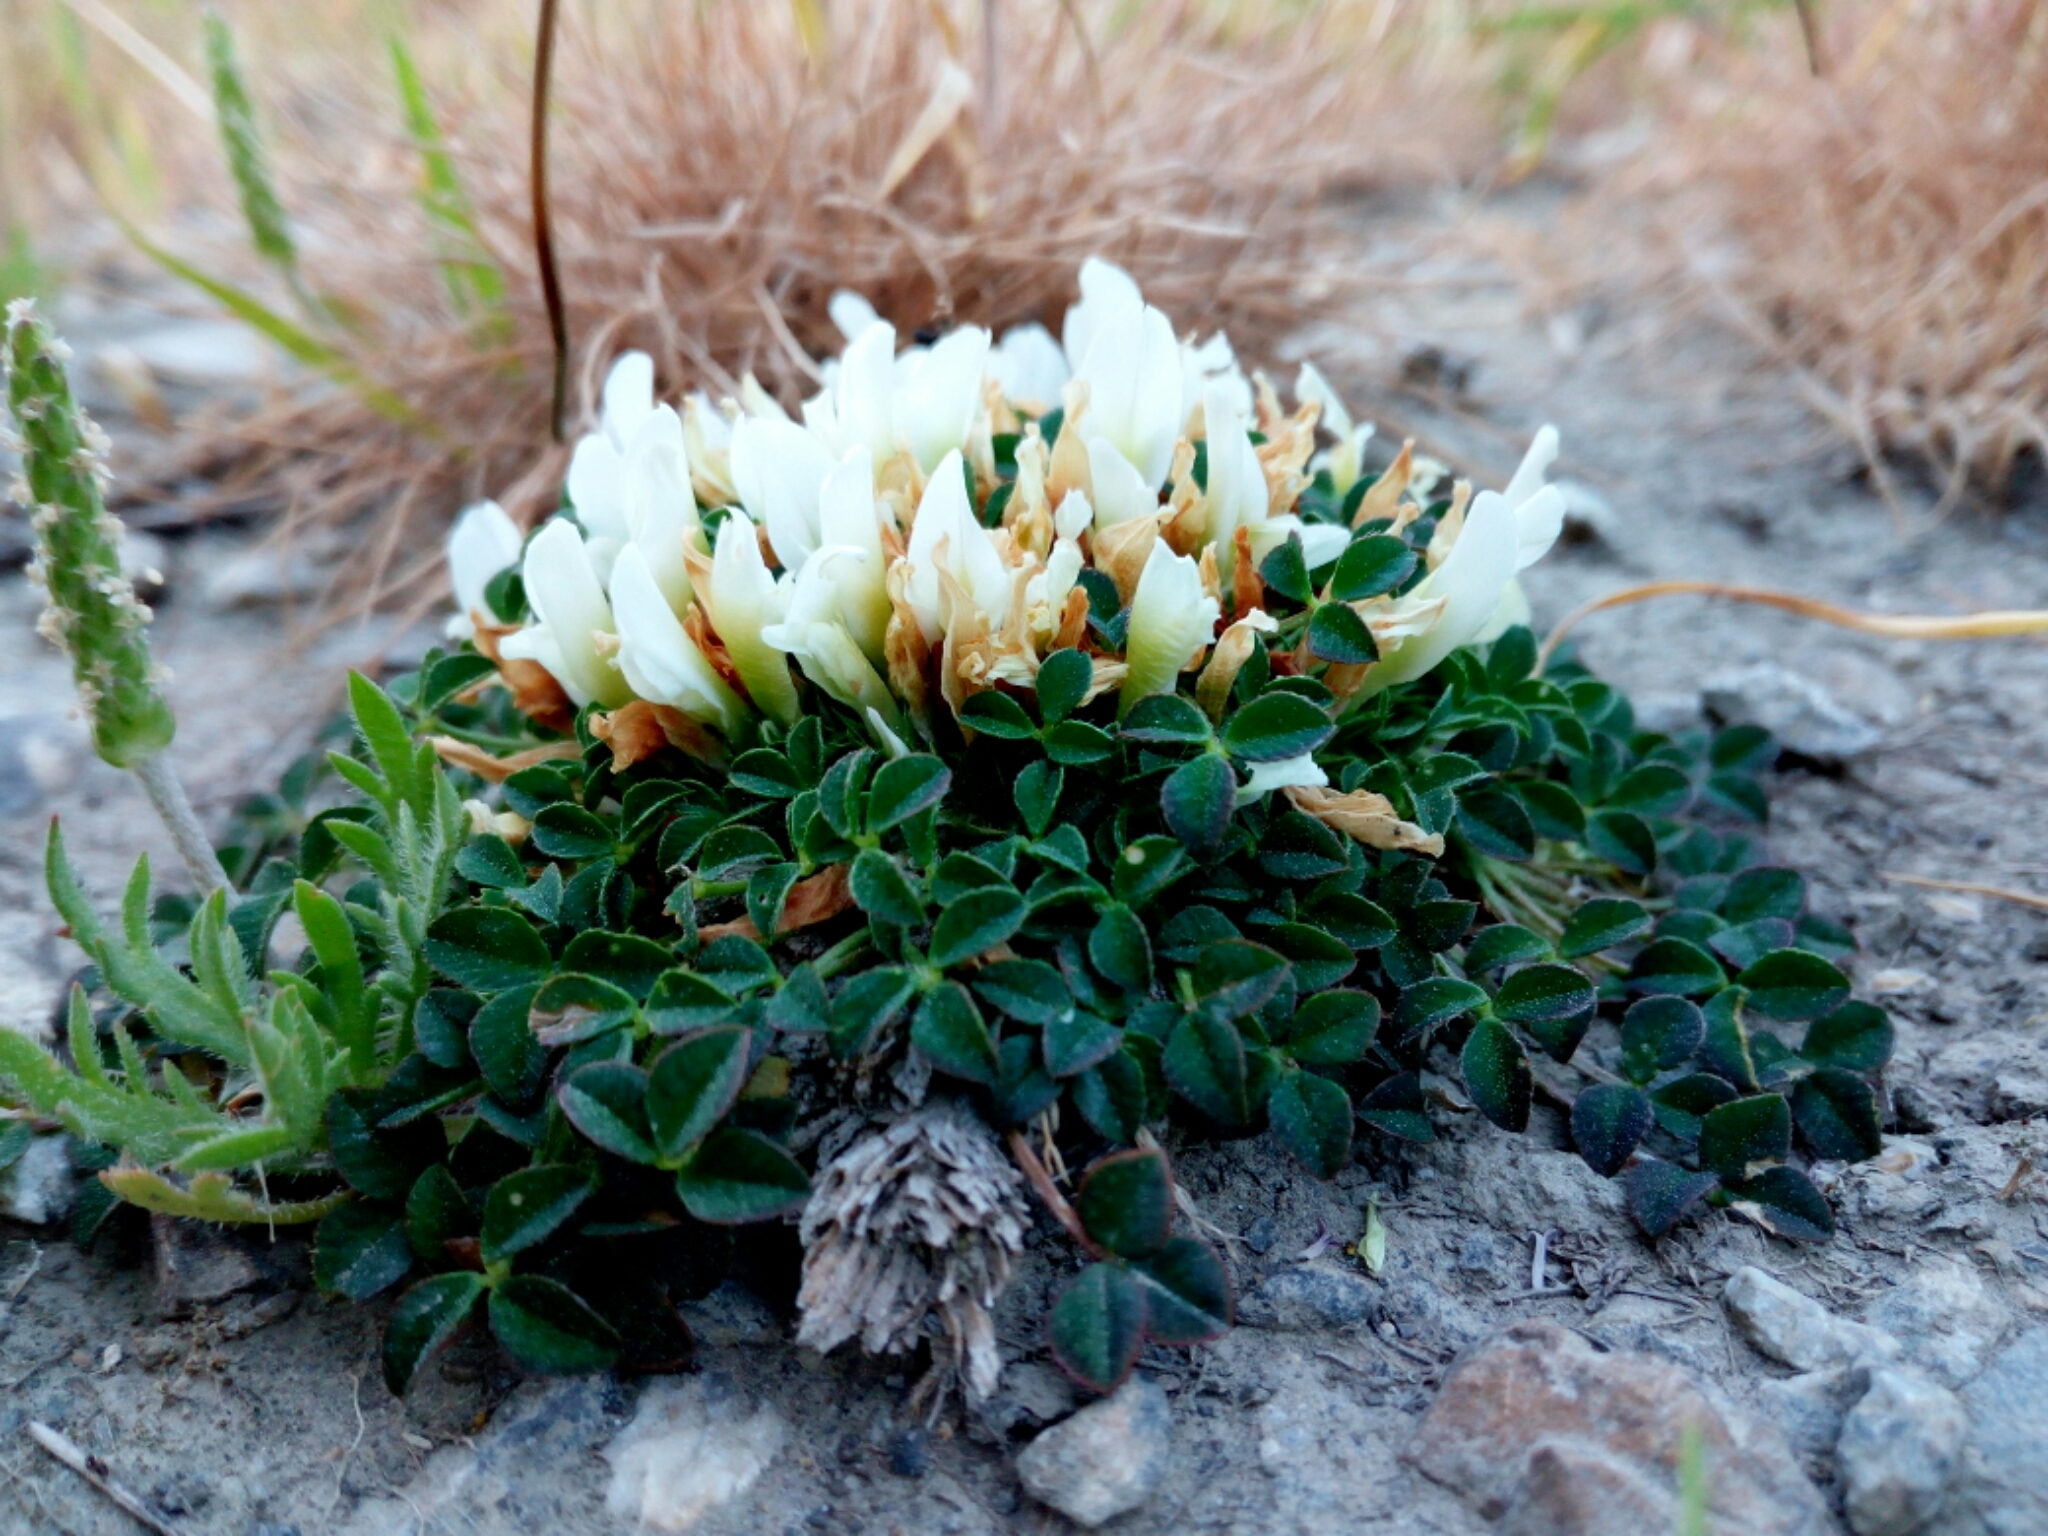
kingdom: Plantae
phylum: Tracheophyta
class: Magnoliopsida
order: Fabales
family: Fabaceae
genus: Trifolium
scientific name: Trifolium uniflorum
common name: One-flower clover
